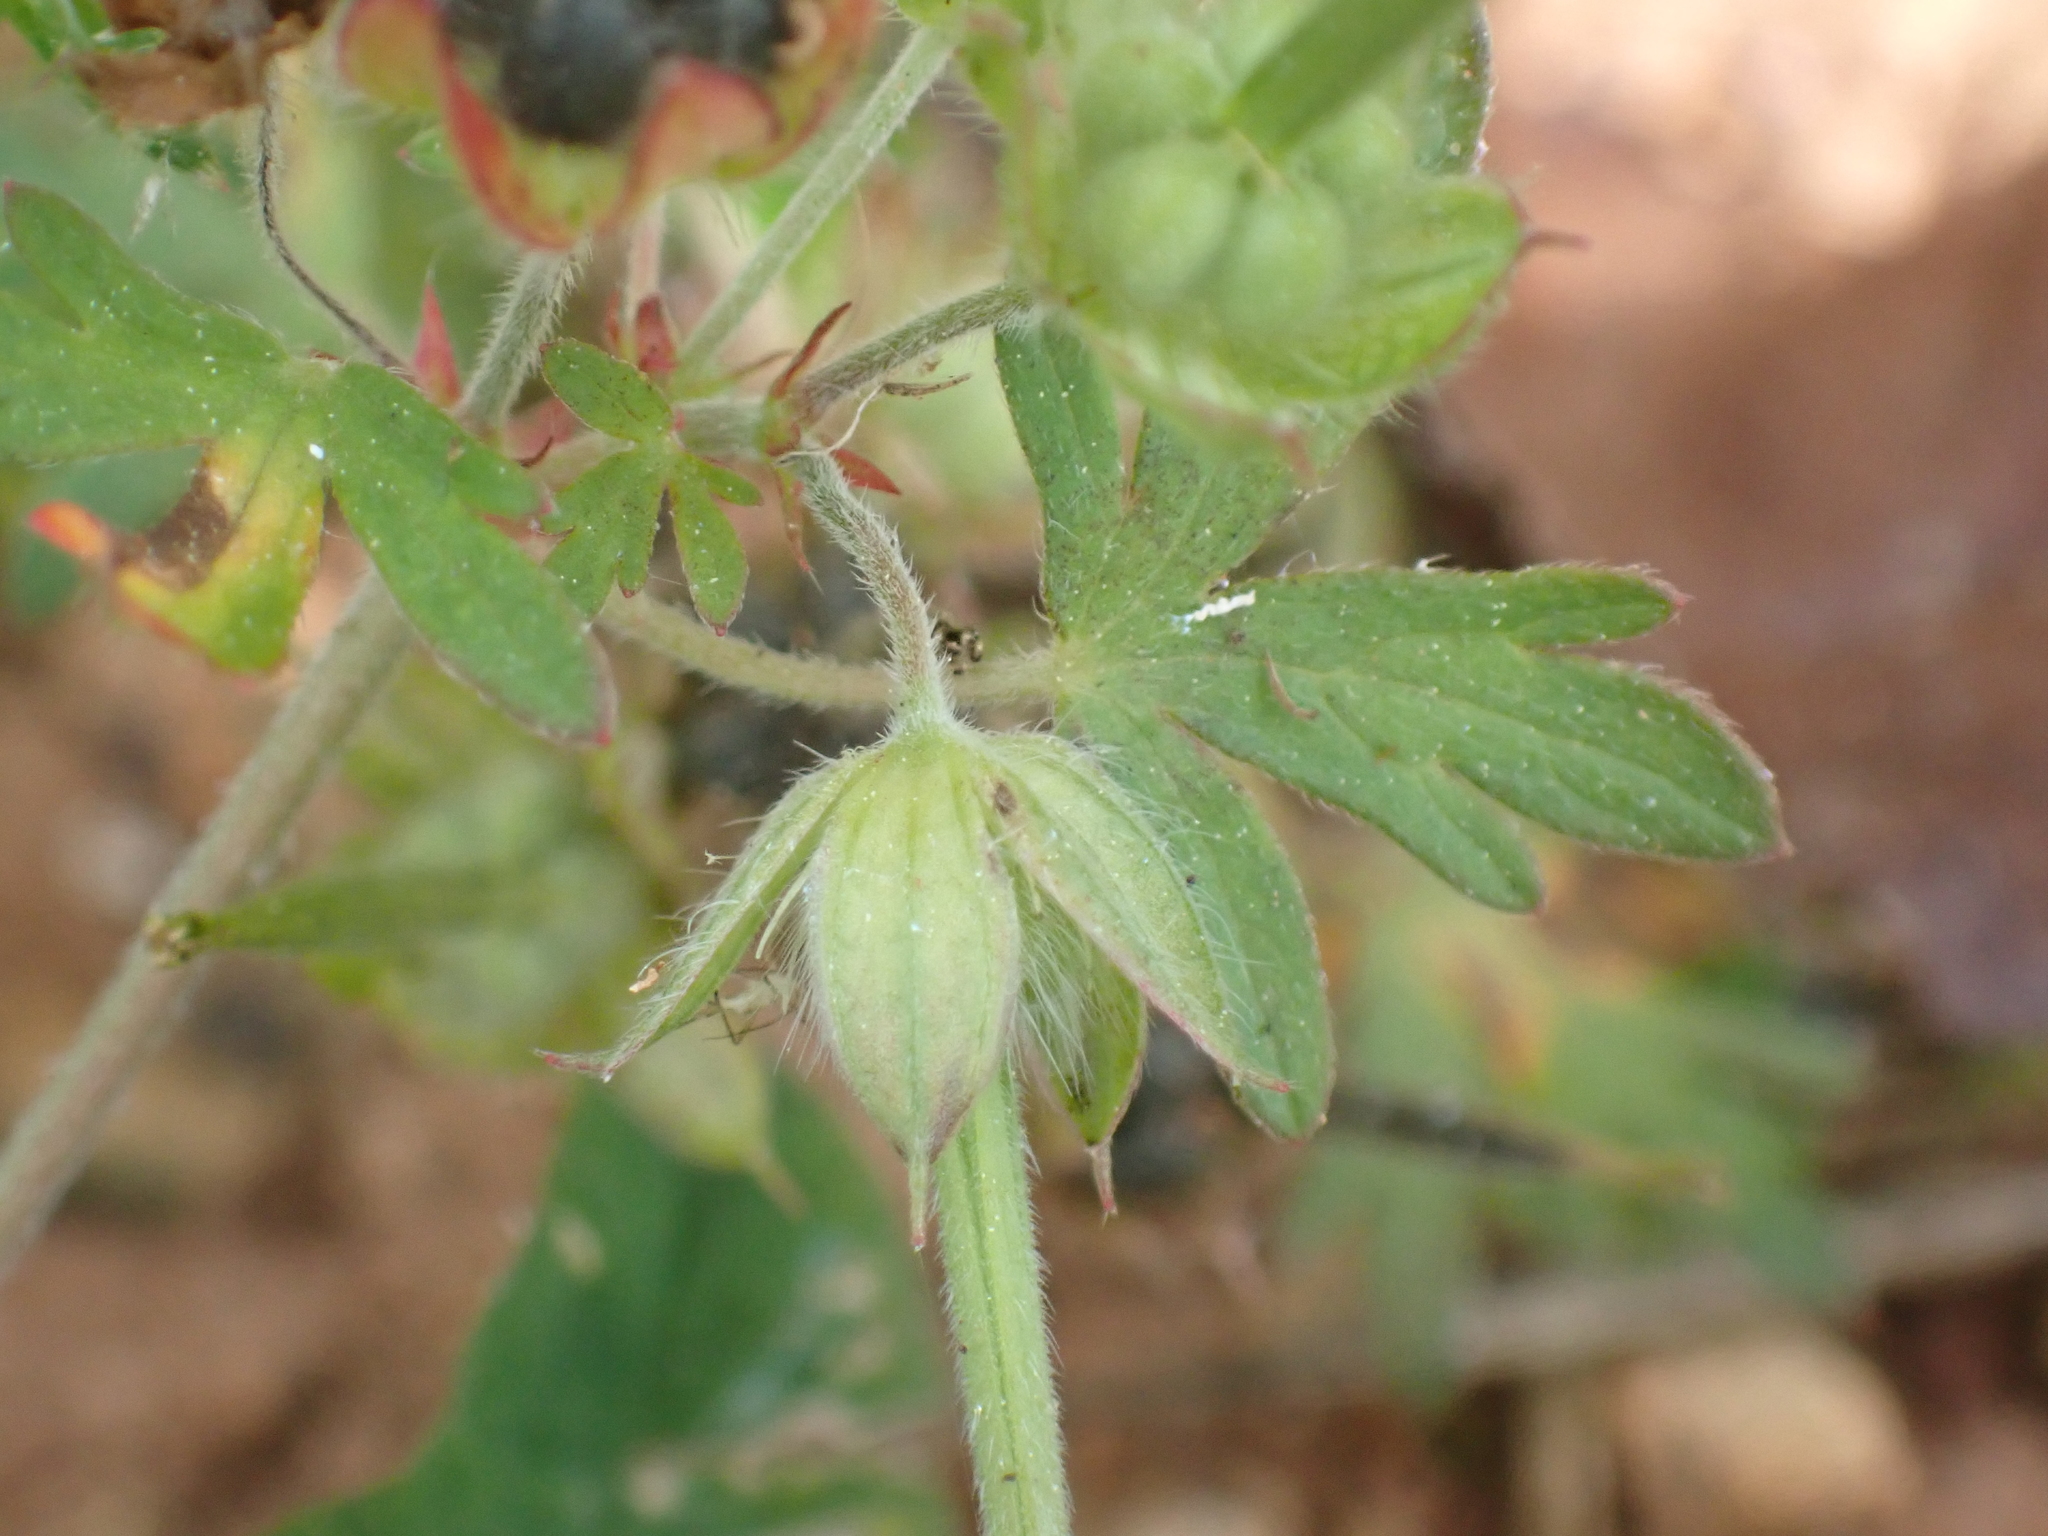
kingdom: Plantae
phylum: Tracheophyta
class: Magnoliopsida
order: Geraniales
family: Geraniaceae
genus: Geranium
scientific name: Geranium carolinianum
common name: Carolina crane's-bill
